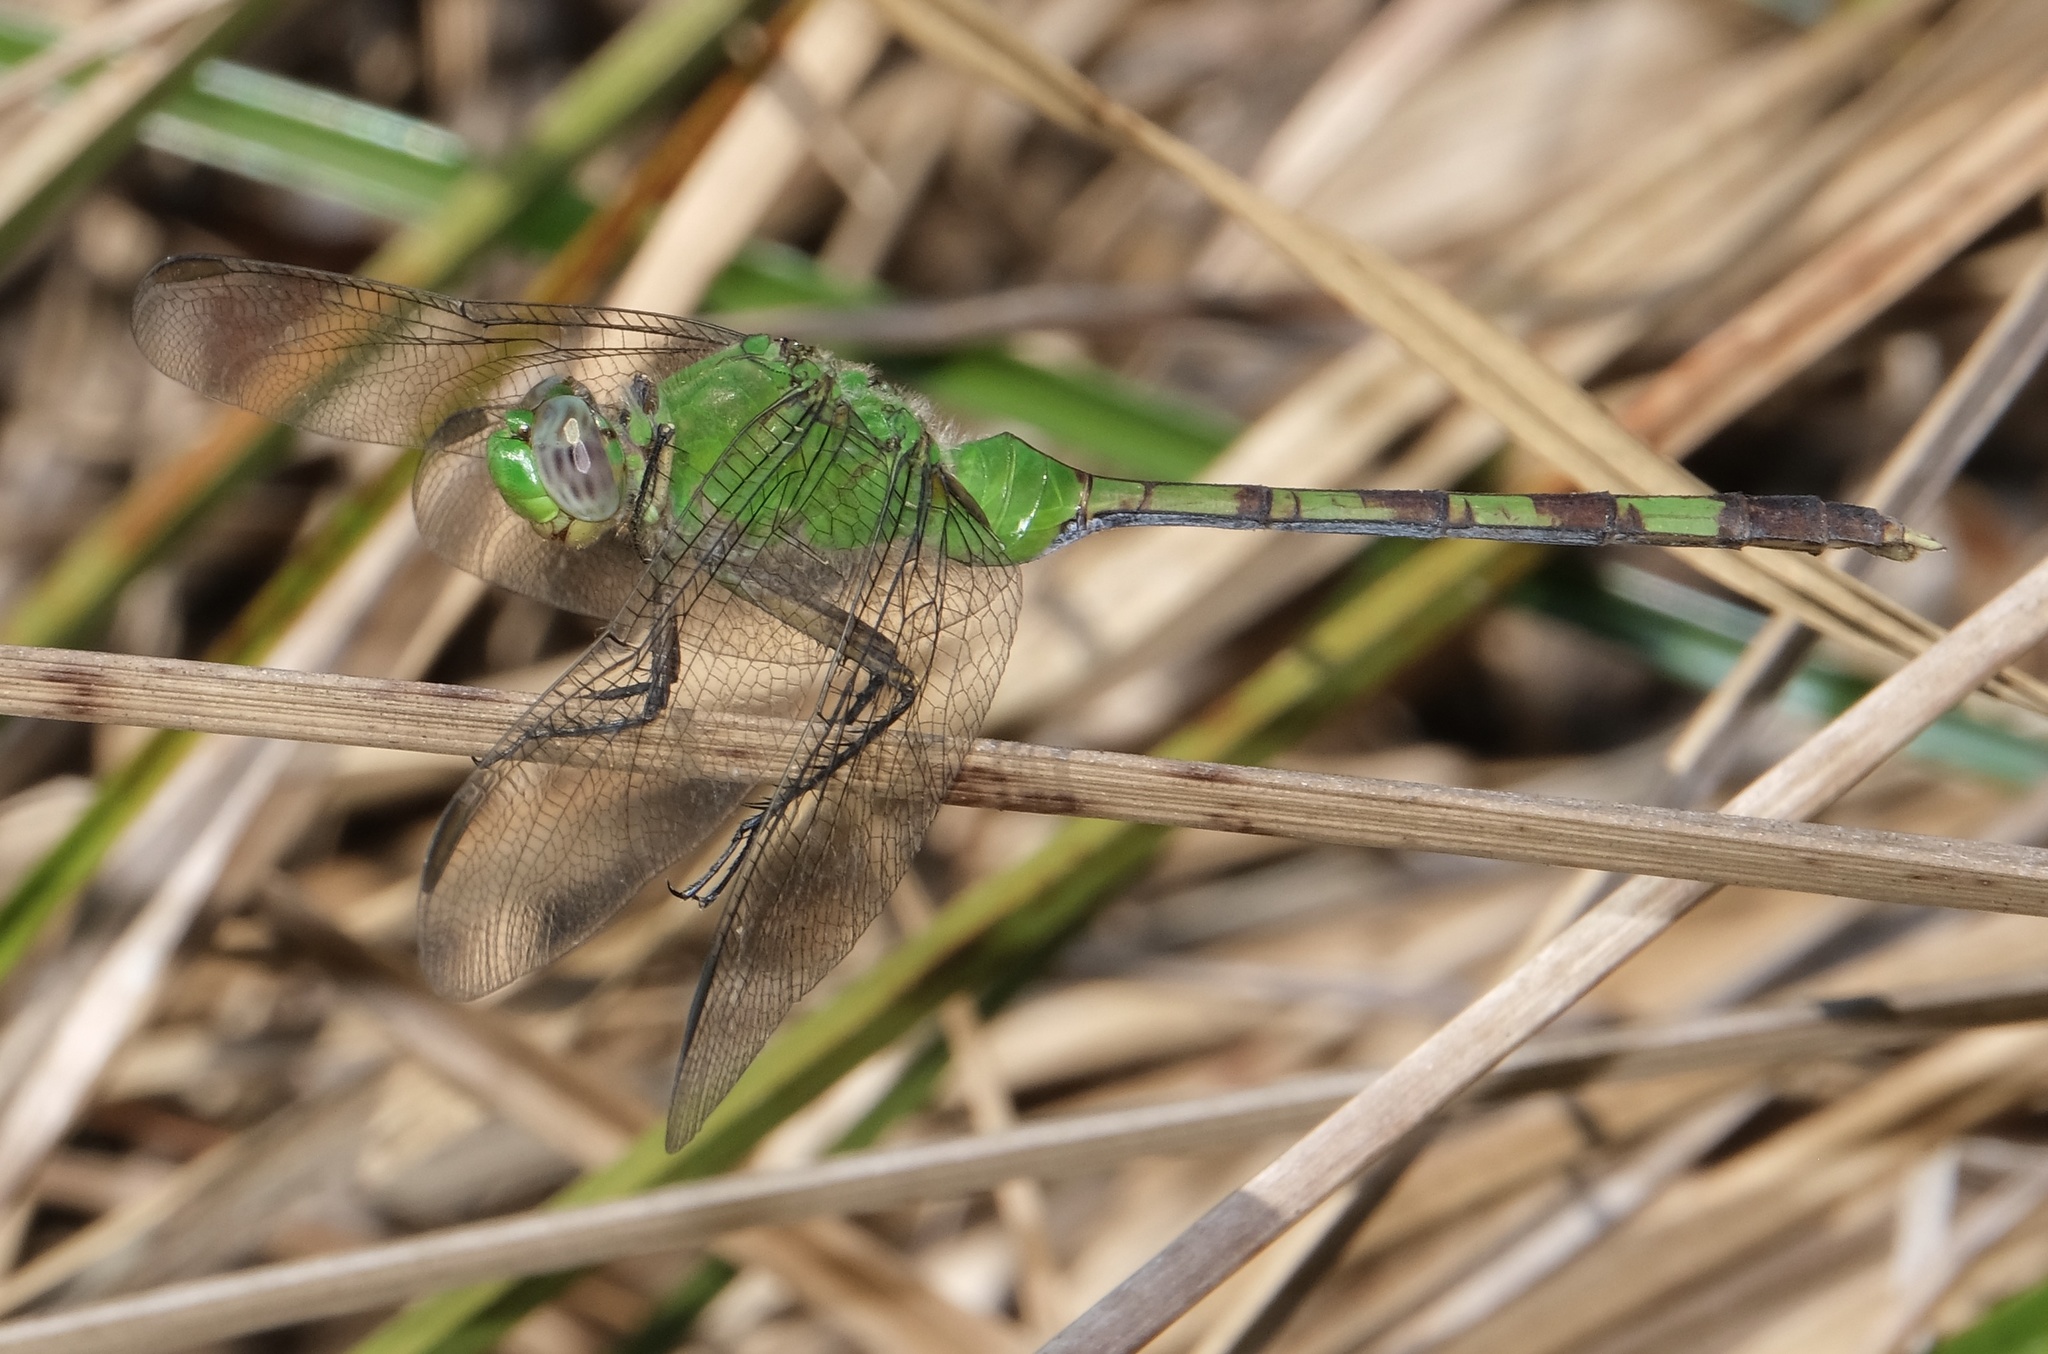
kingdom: Animalia
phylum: Arthropoda
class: Insecta
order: Odonata
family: Libellulidae
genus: Erythemis
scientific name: Erythemis vesiculosa
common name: Great pondhawk
